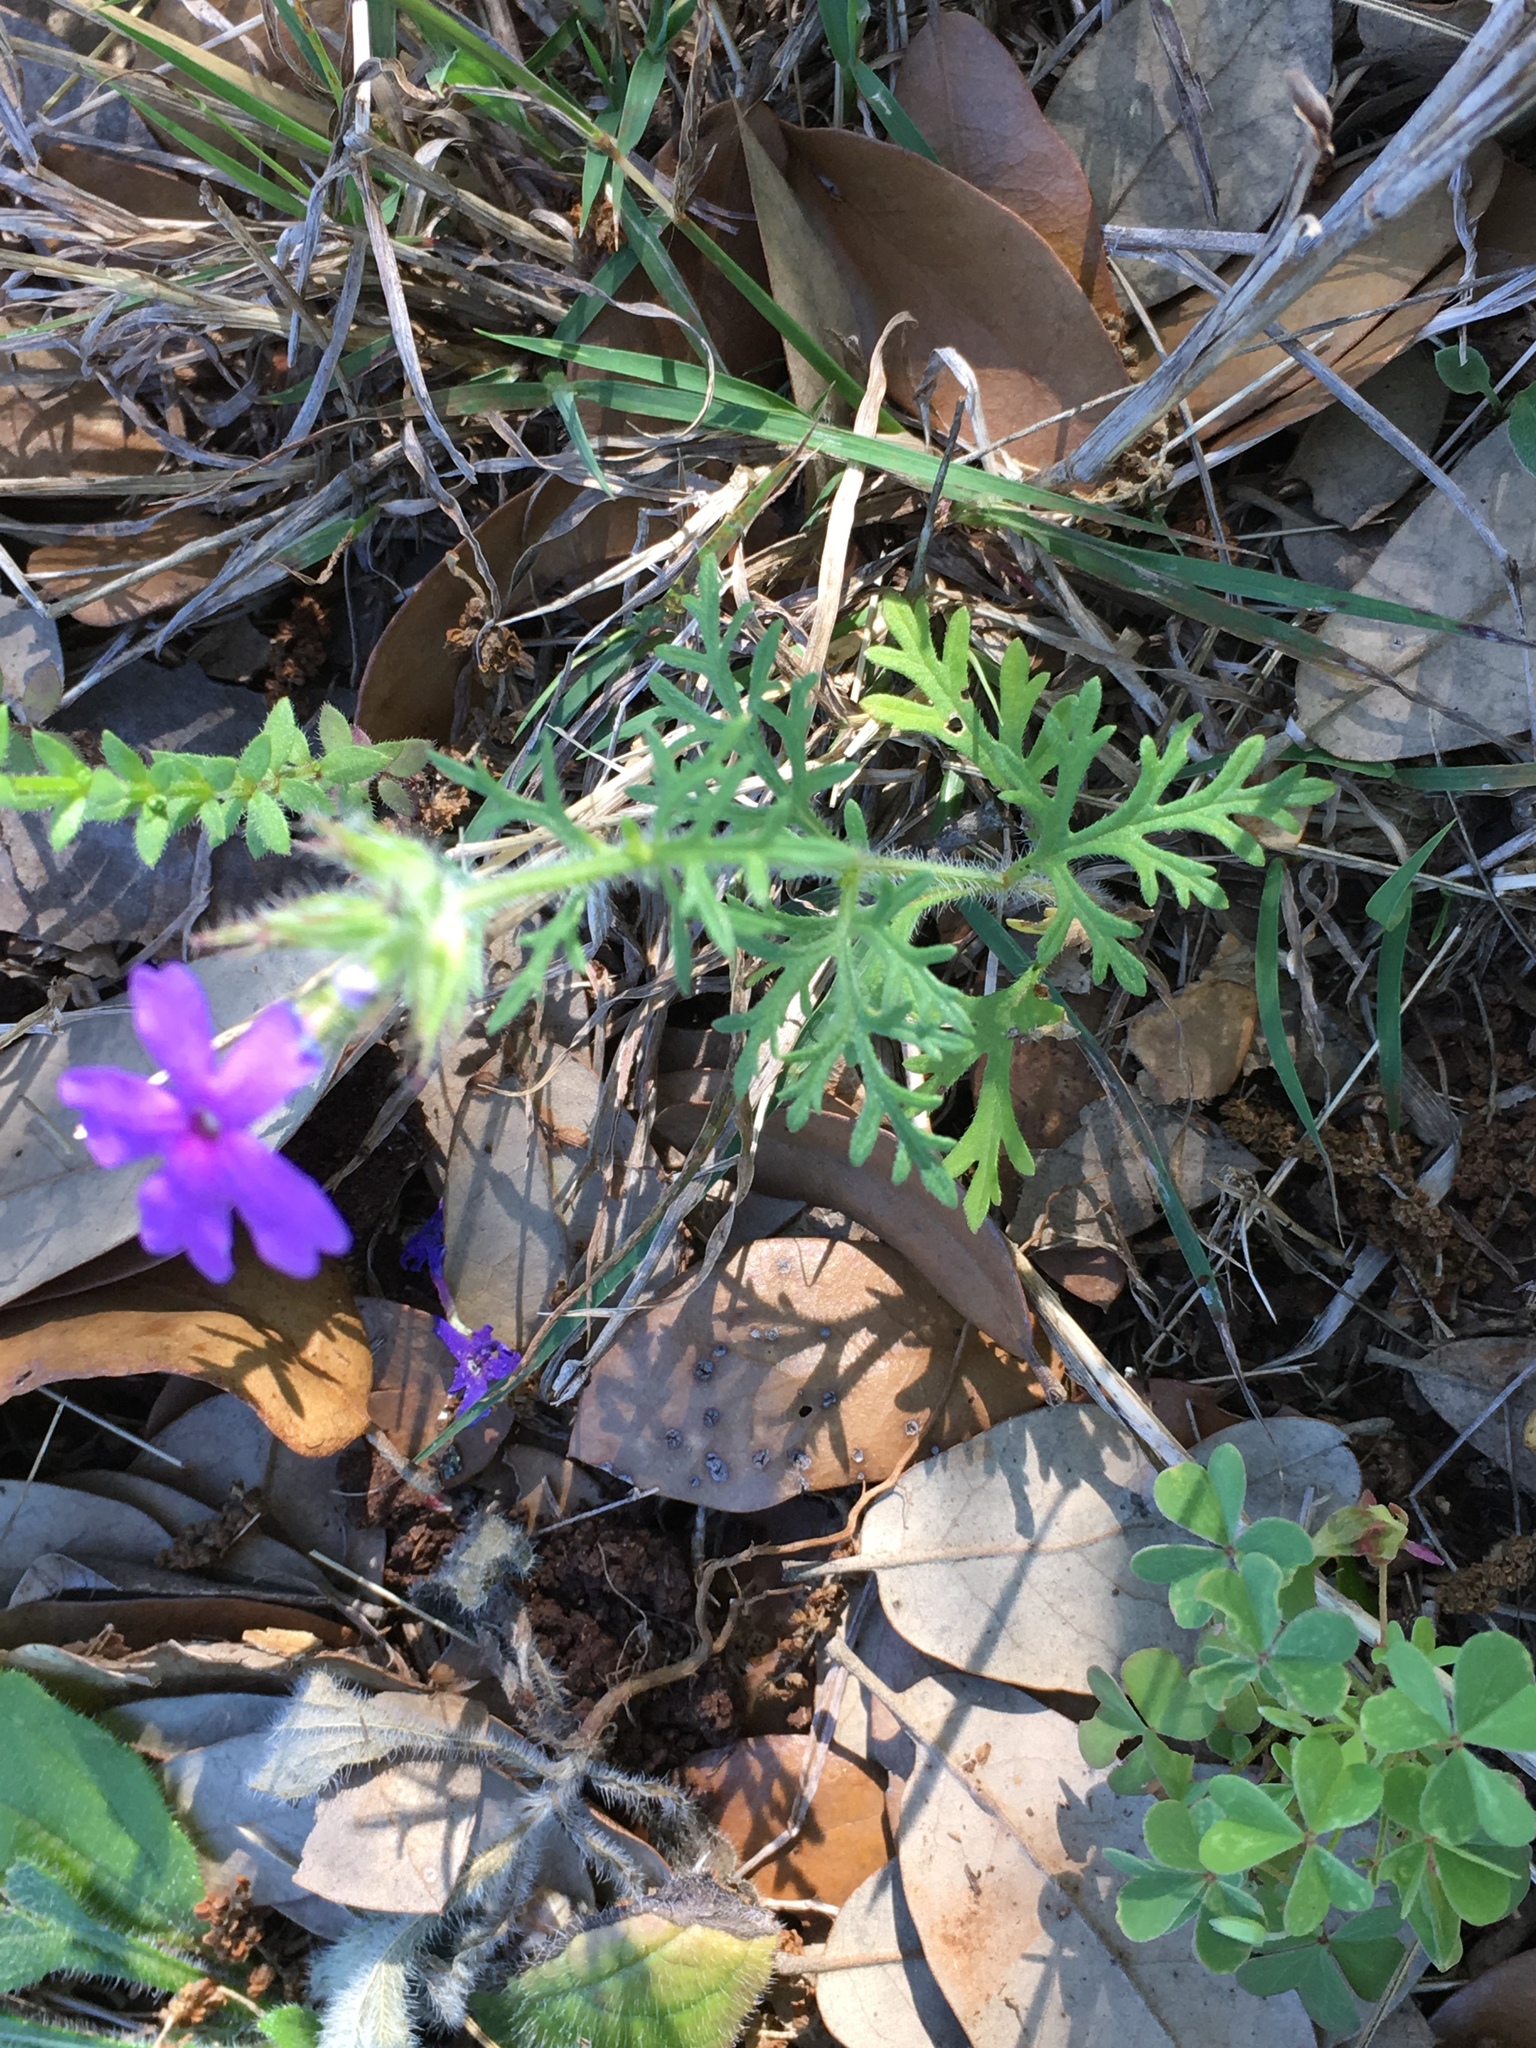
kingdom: Plantae
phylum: Tracheophyta
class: Magnoliopsida
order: Lamiales
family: Verbenaceae
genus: Verbena
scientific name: Verbena bipinnatifida
